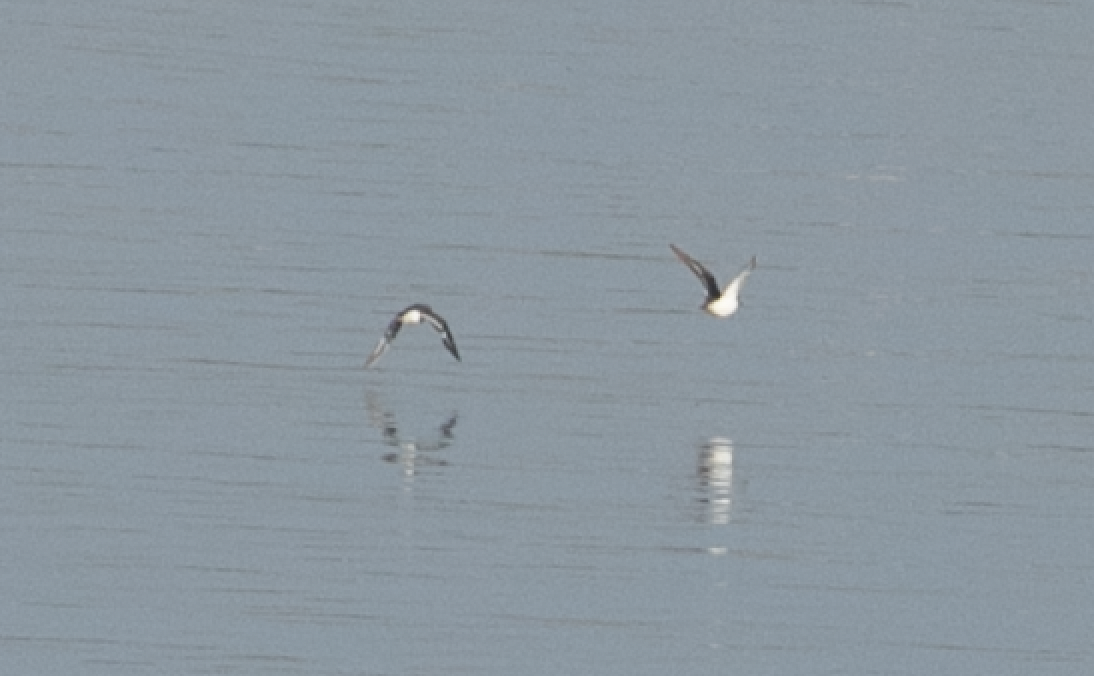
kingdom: Animalia
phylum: Chordata
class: Aves
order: Charadriiformes
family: Scolopacidae
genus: Actitis
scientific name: Actitis hypoleucos
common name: Common sandpiper
